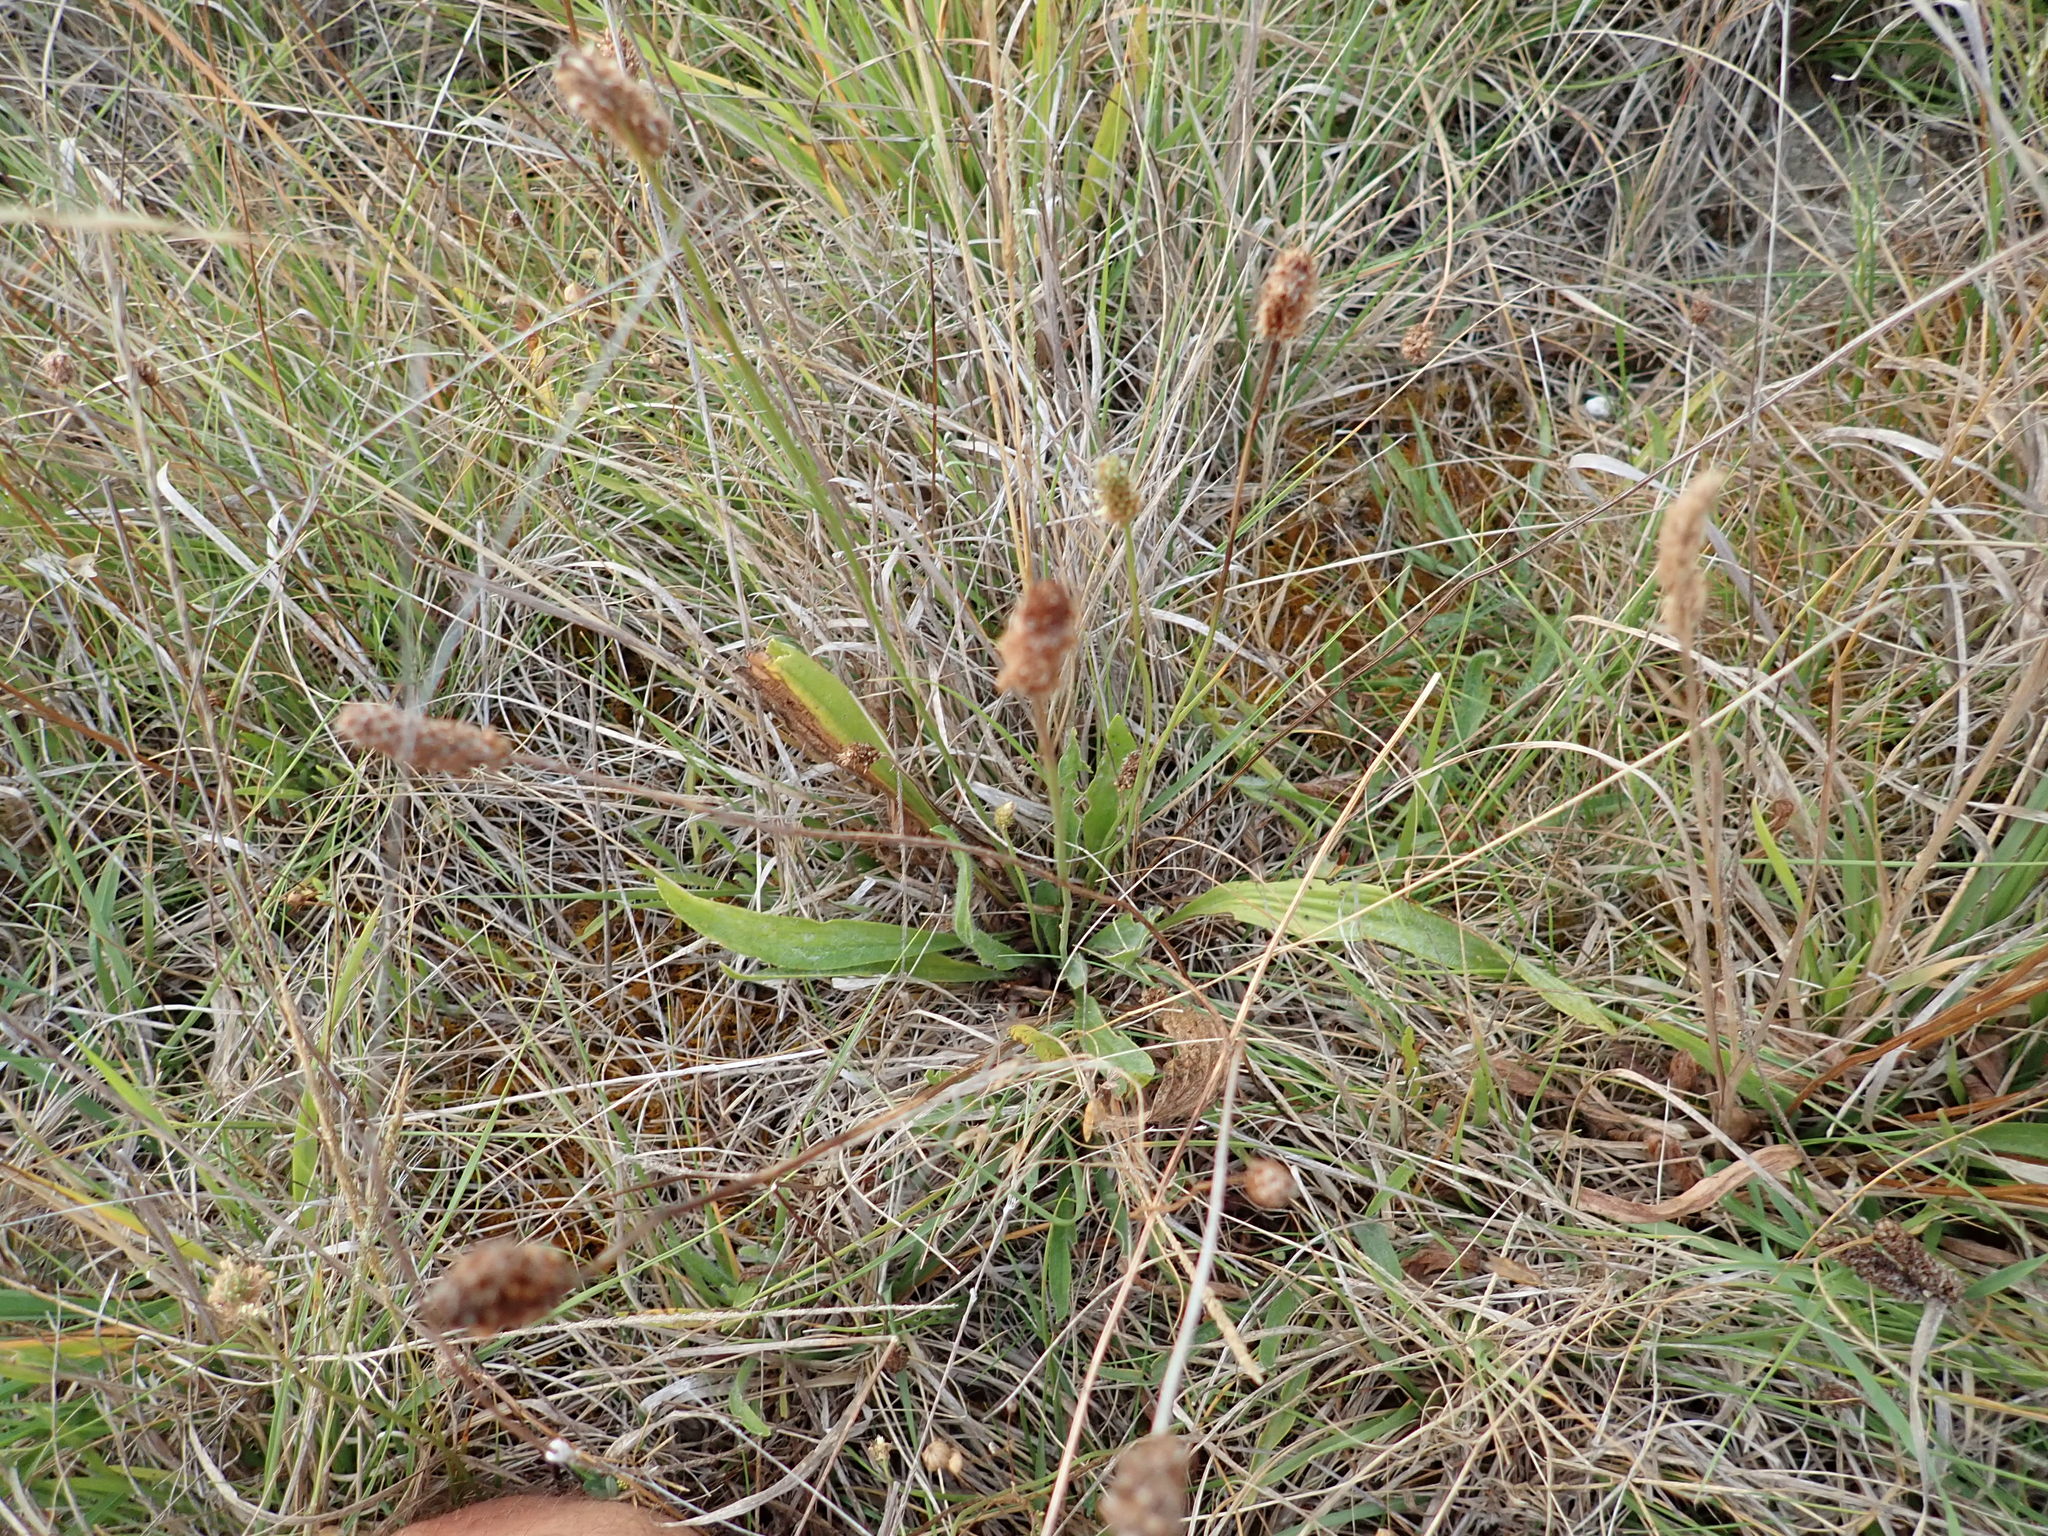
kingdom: Plantae
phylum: Tracheophyta
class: Magnoliopsida
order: Lamiales
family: Plantaginaceae
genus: Plantago
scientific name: Plantago lanceolata
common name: Ribwort plantain
